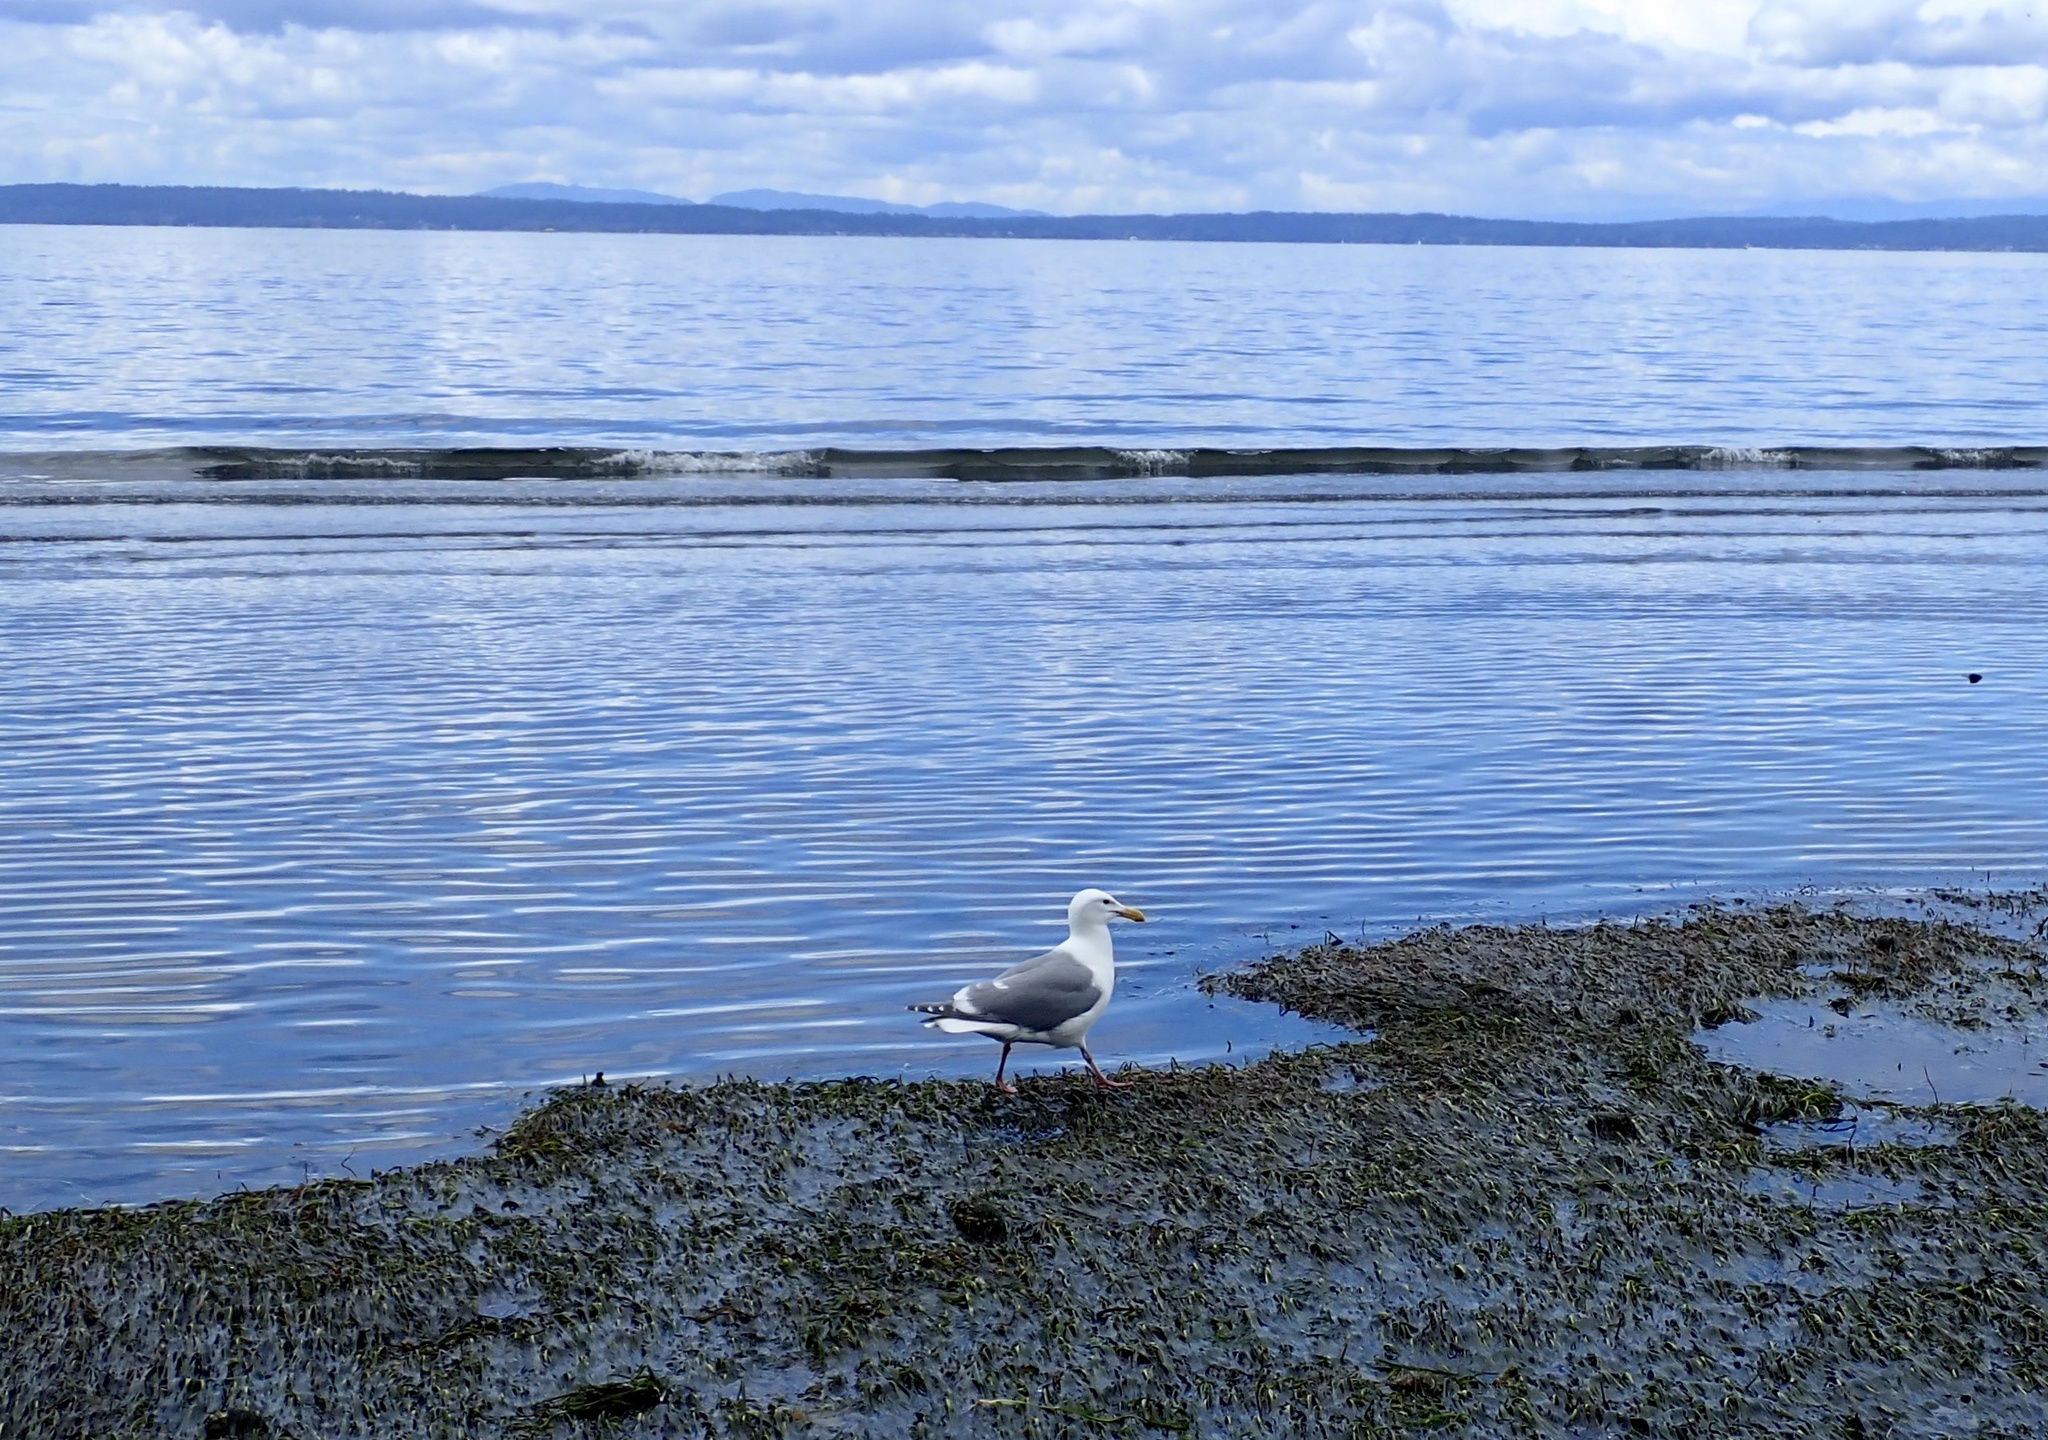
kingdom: Animalia
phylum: Chordata
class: Aves
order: Charadriiformes
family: Laridae
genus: Larus
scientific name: Larus
